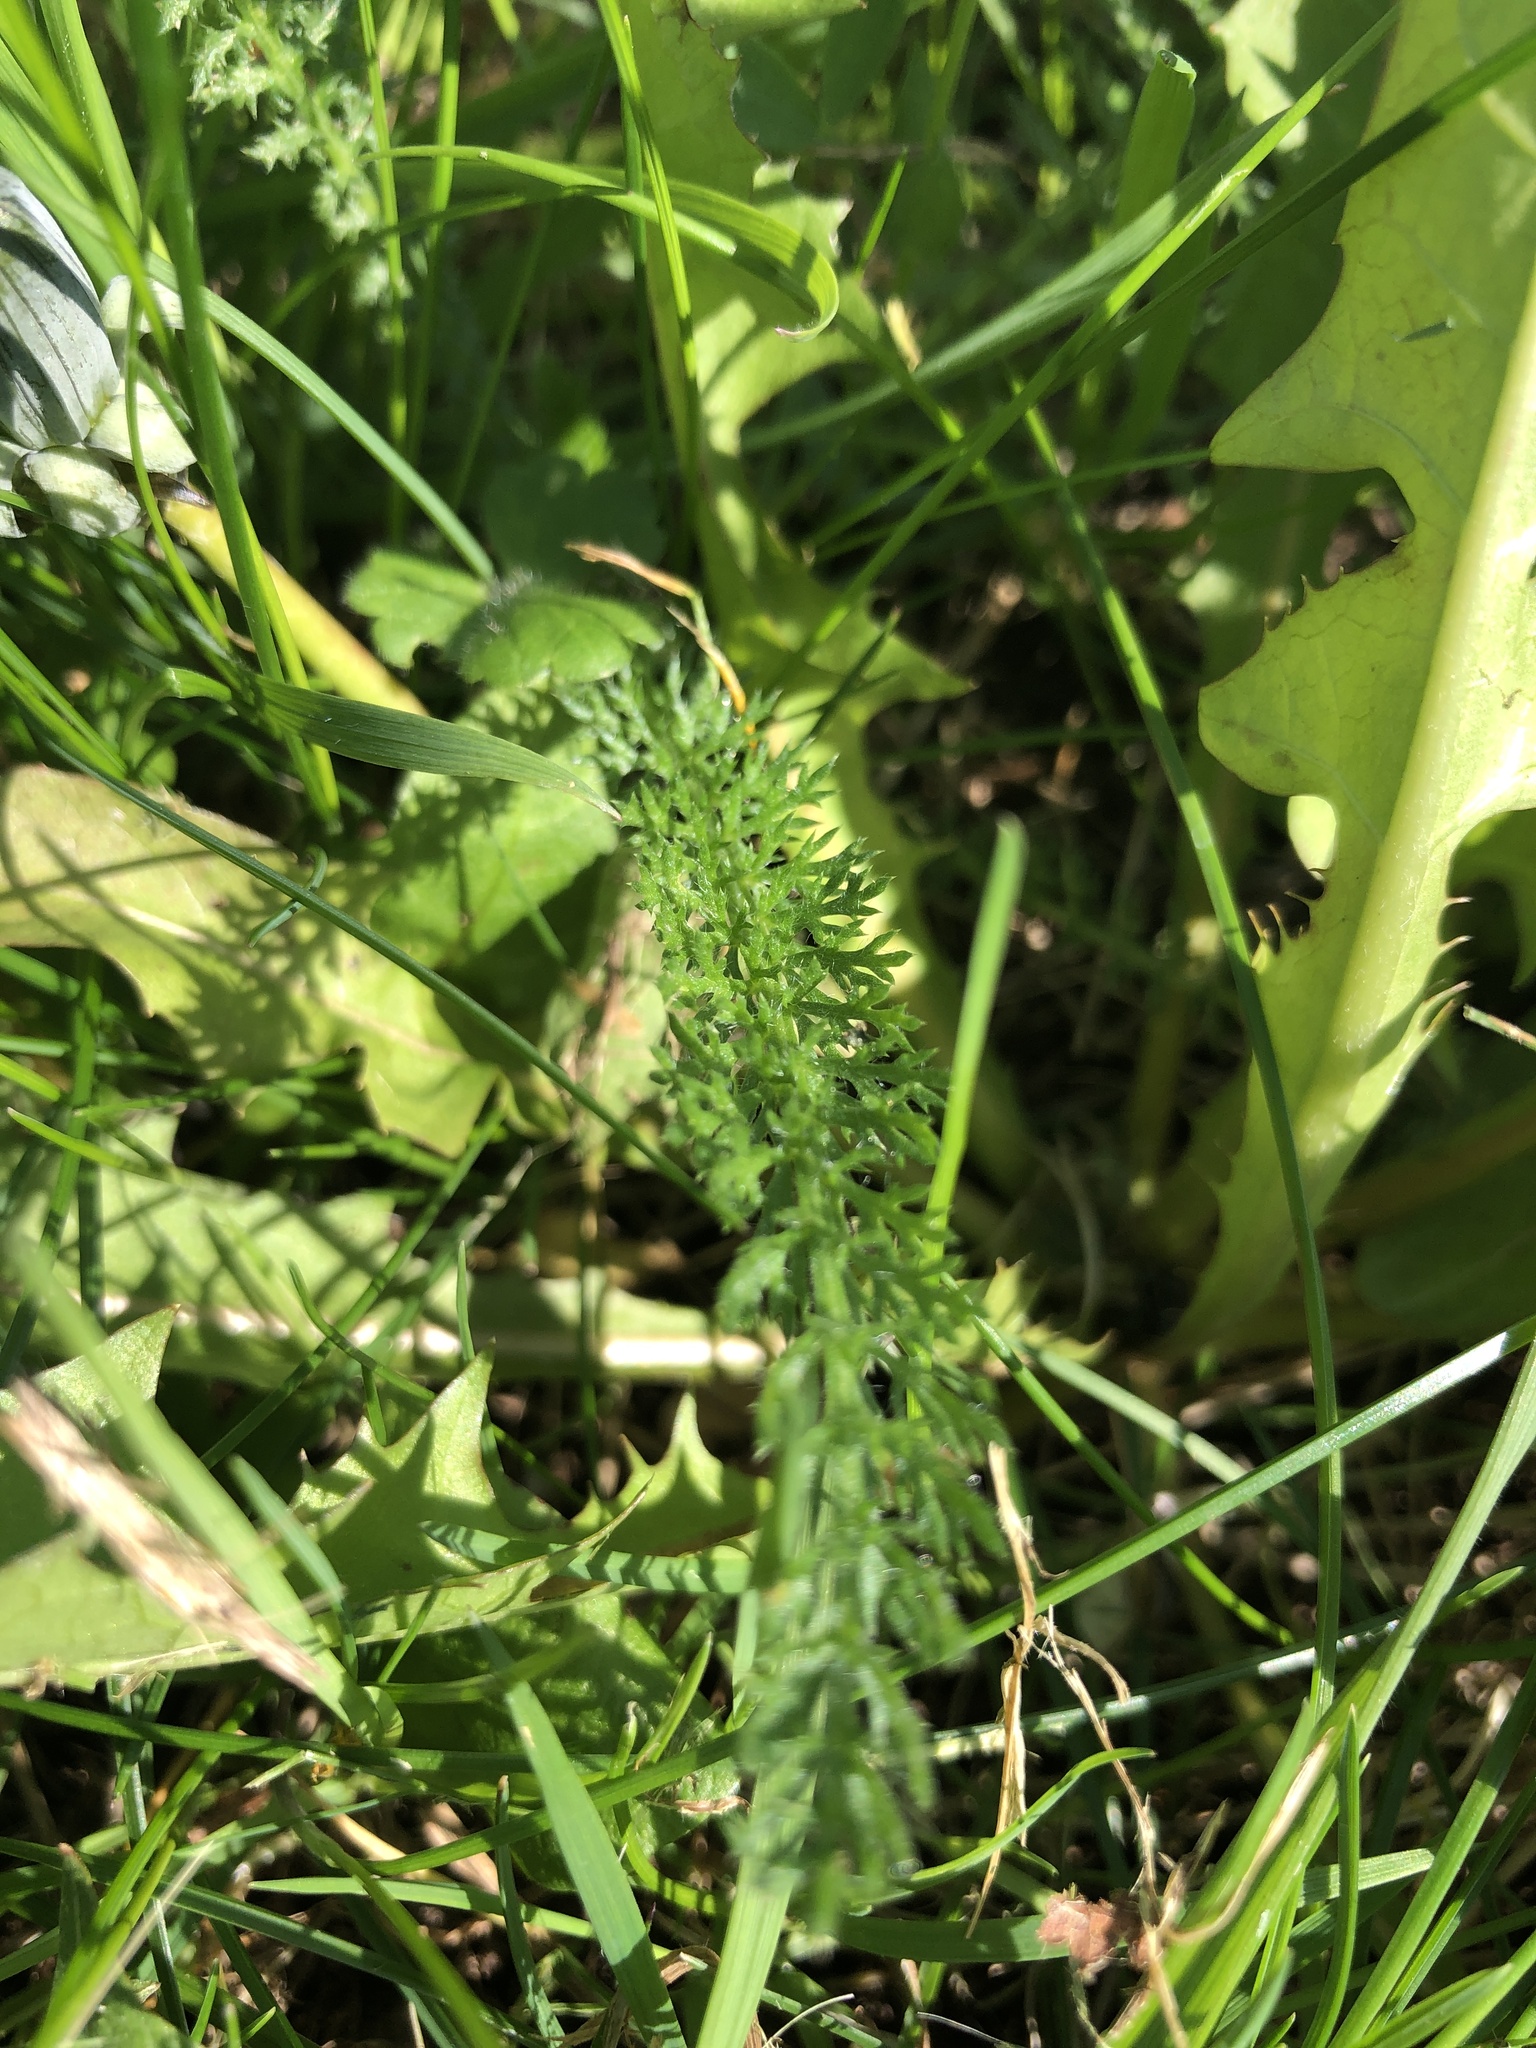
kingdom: Plantae
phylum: Tracheophyta
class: Magnoliopsida
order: Asterales
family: Asteraceae
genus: Achillea
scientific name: Achillea millefolium
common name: Yarrow
